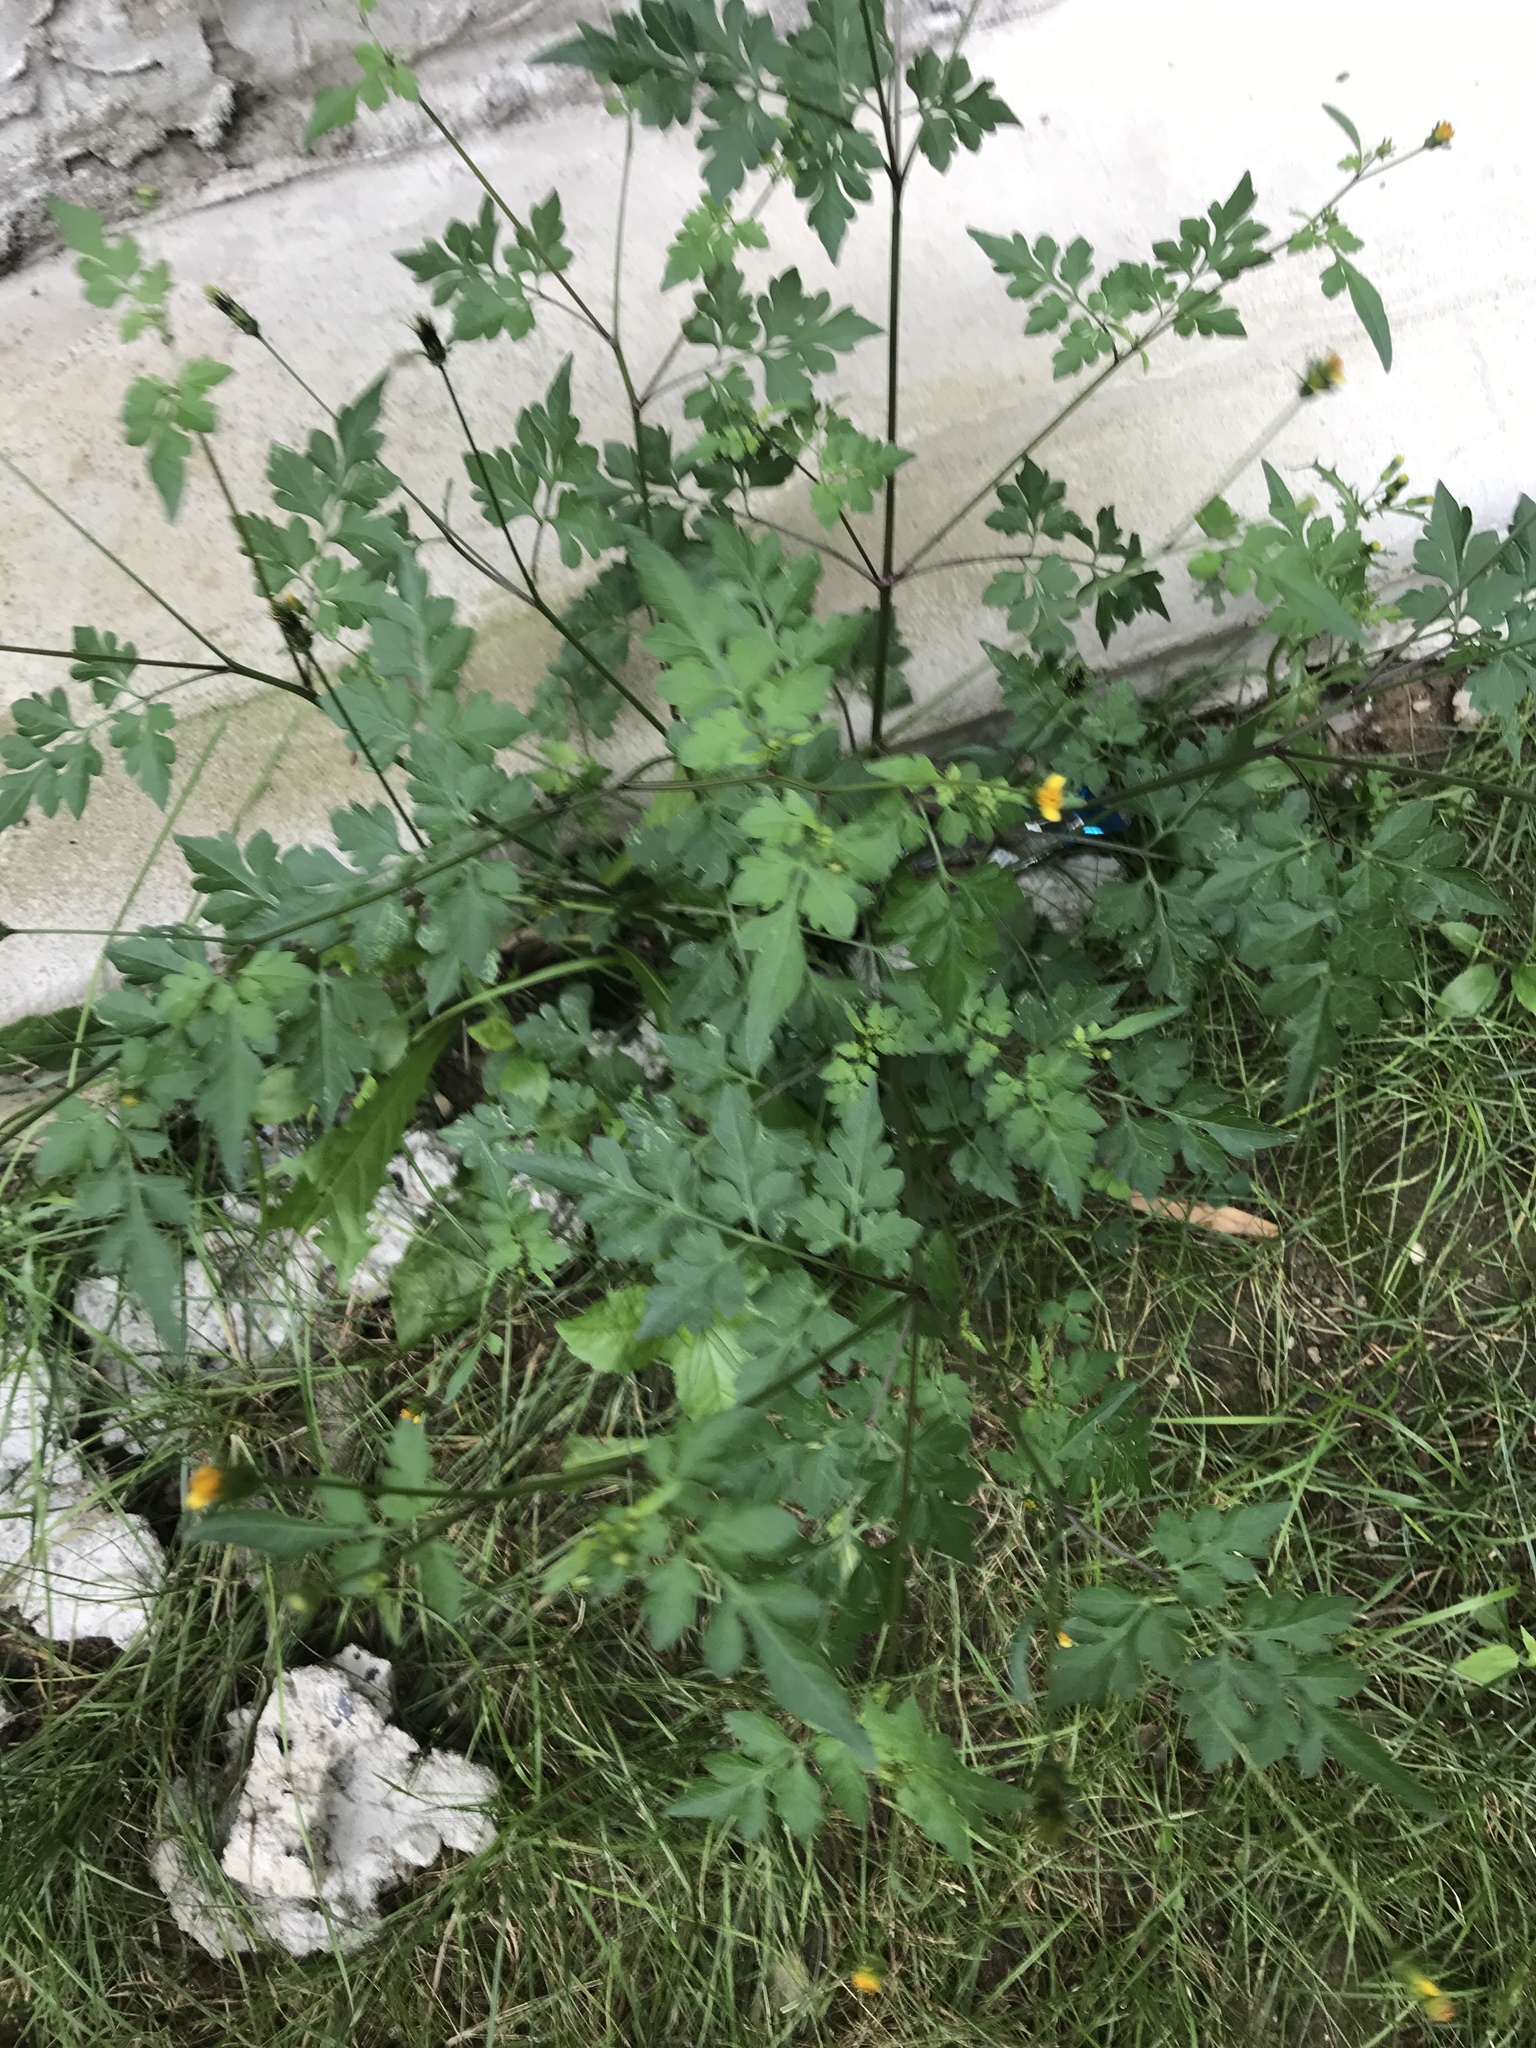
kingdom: Plantae
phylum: Tracheophyta
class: Magnoliopsida
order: Asterales
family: Asteraceae
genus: Bidens
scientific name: Bidens bipinnata
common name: Spanish-needles
